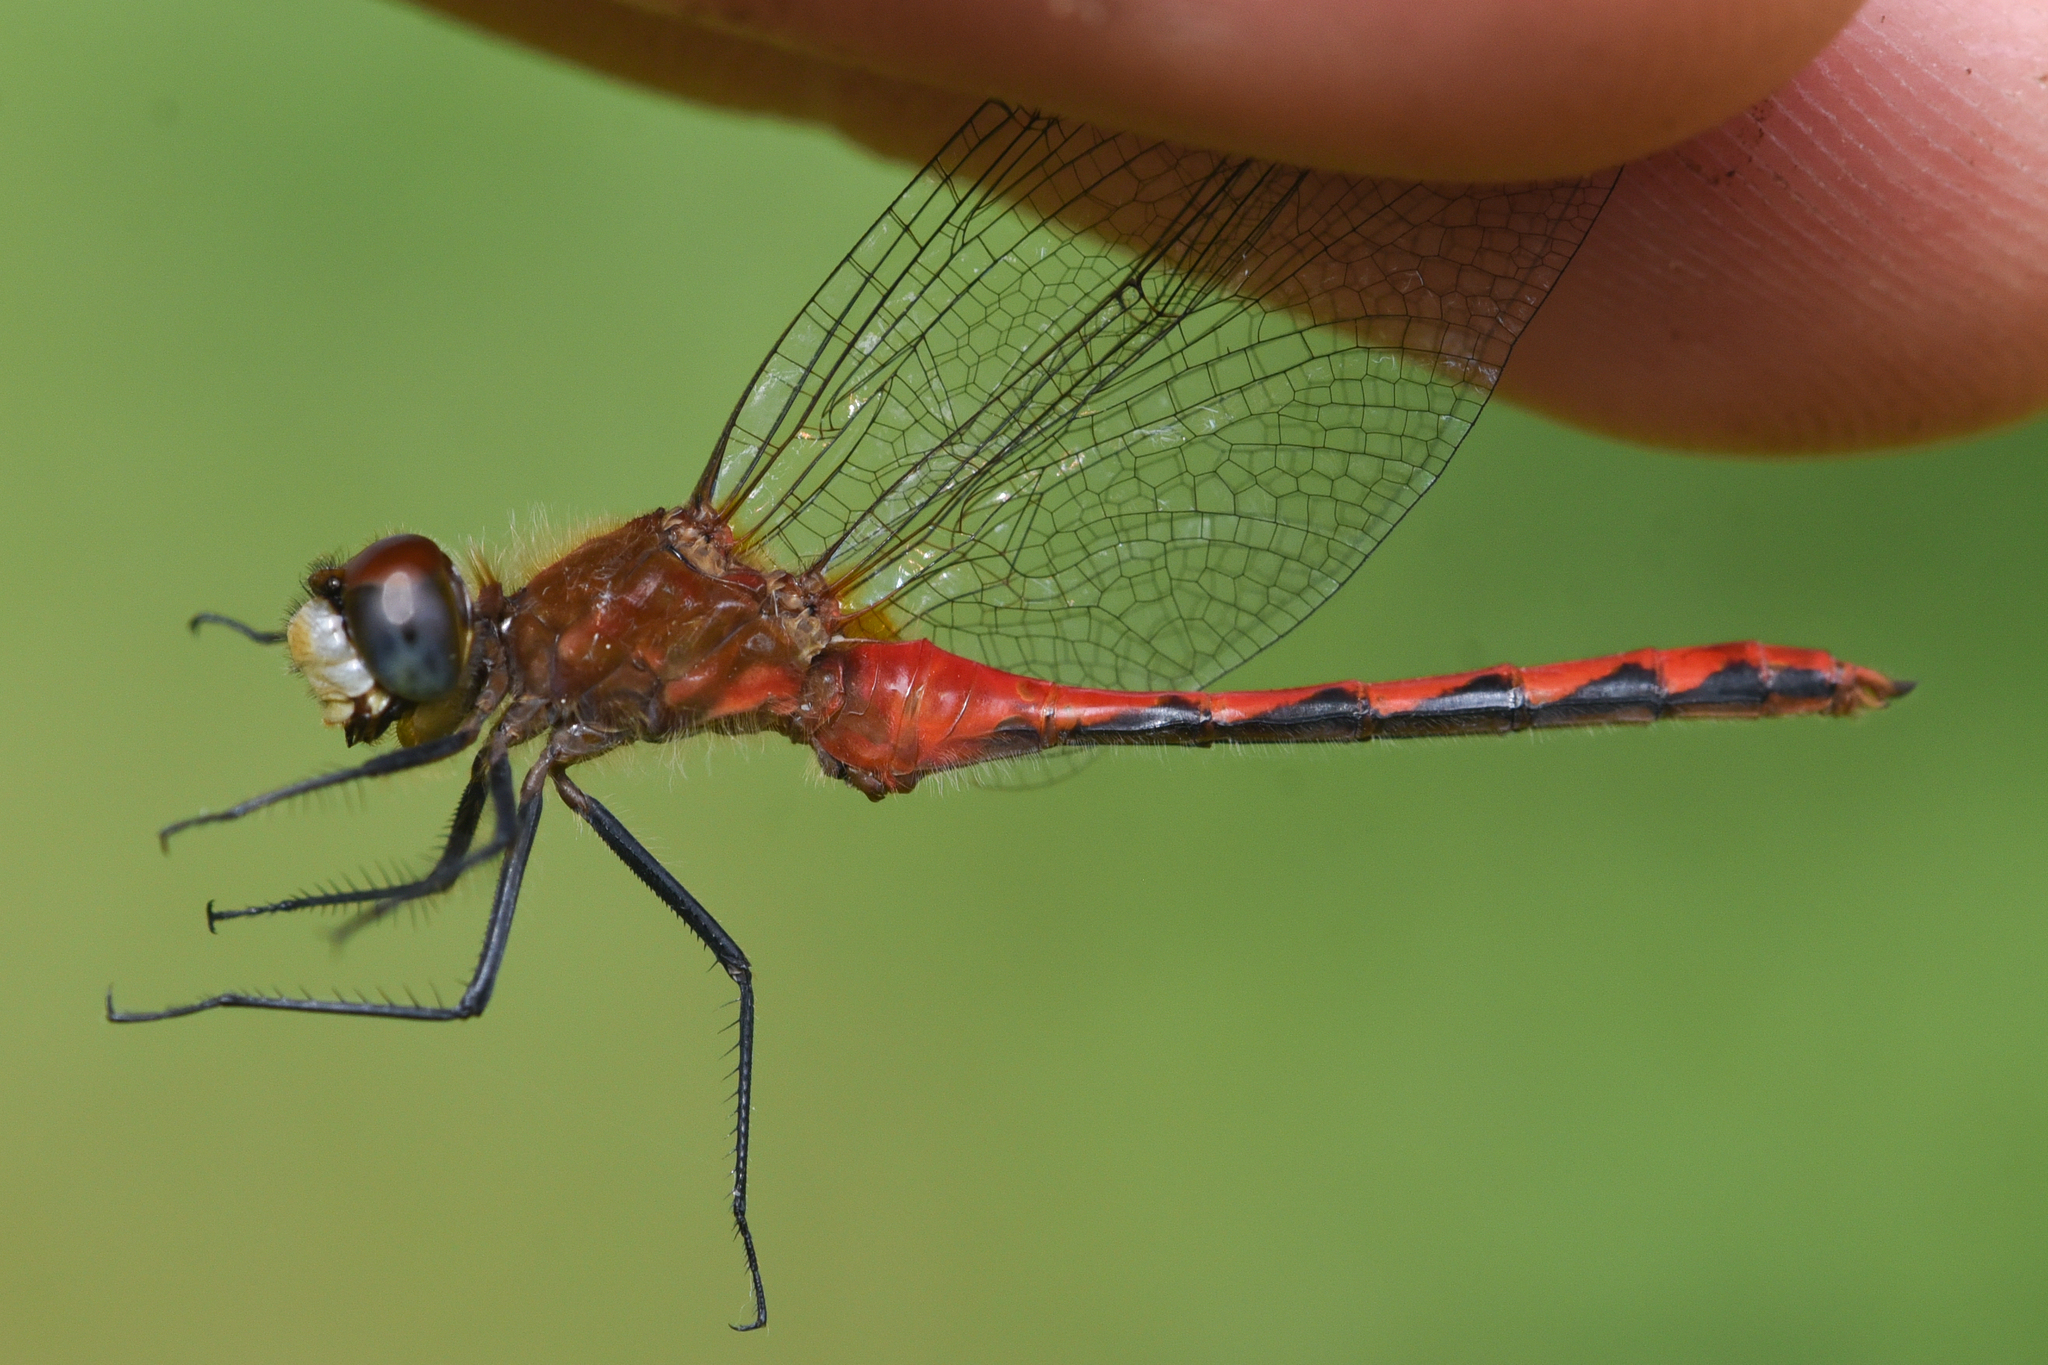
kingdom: Animalia
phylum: Arthropoda
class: Insecta
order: Odonata
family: Libellulidae
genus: Sympetrum
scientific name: Sympetrum obtrusum
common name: White-faced meadowhawk
